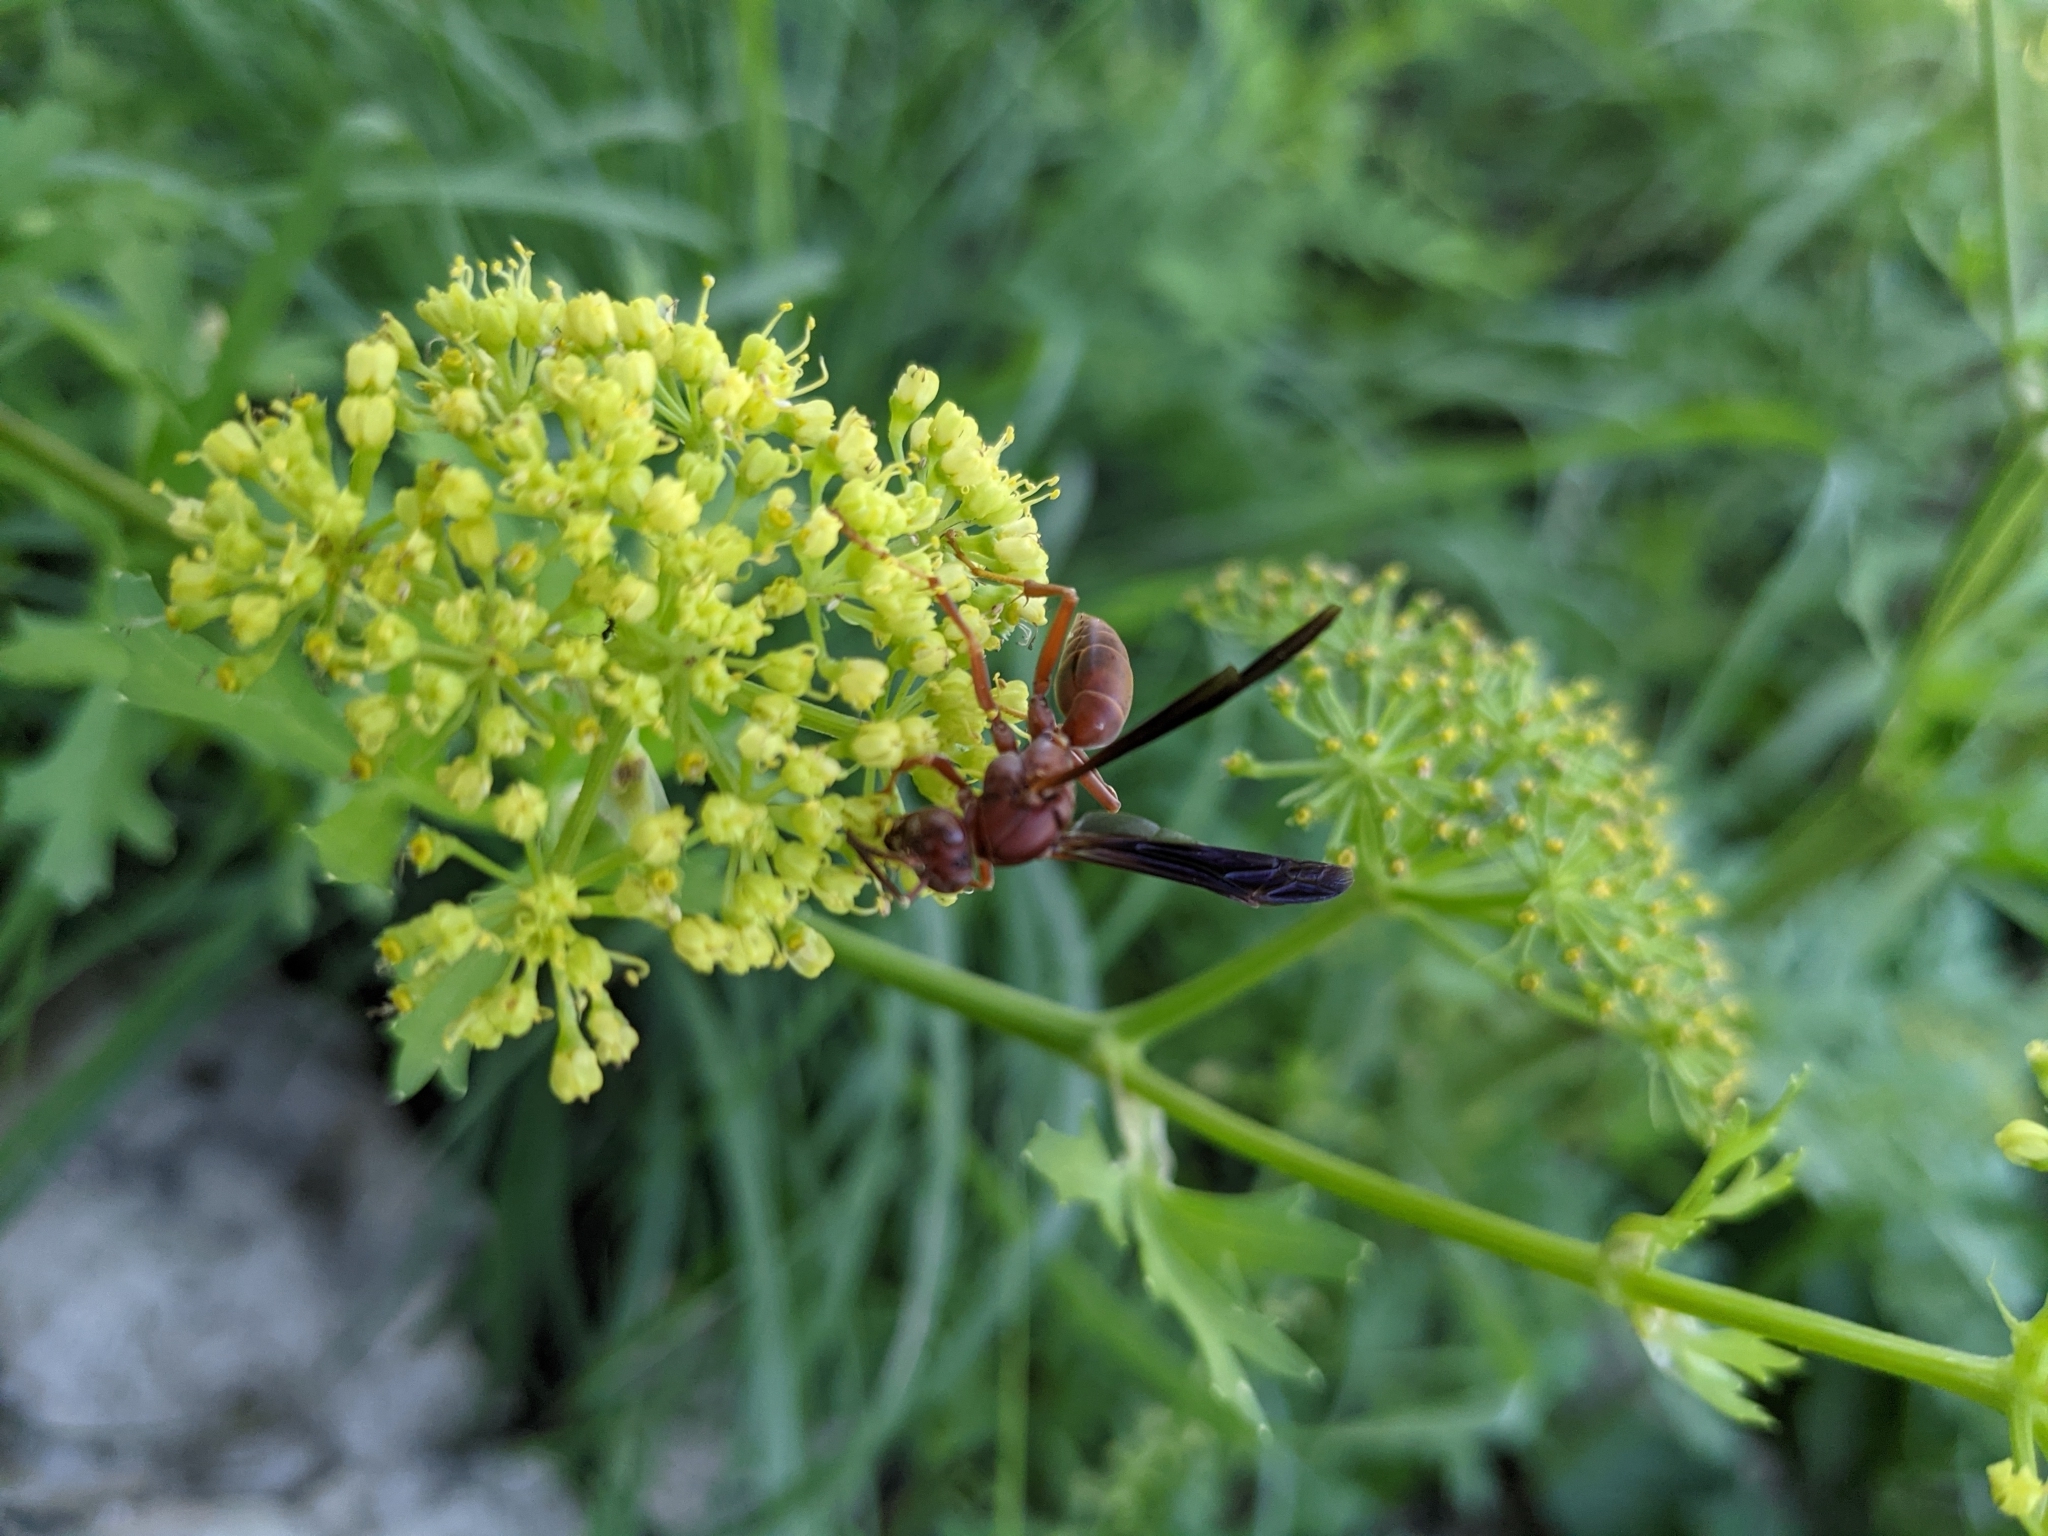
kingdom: Animalia
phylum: Arthropoda
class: Insecta
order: Hymenoptera
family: Vespidae
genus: Fuscopolistes
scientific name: Fuscopolistes
